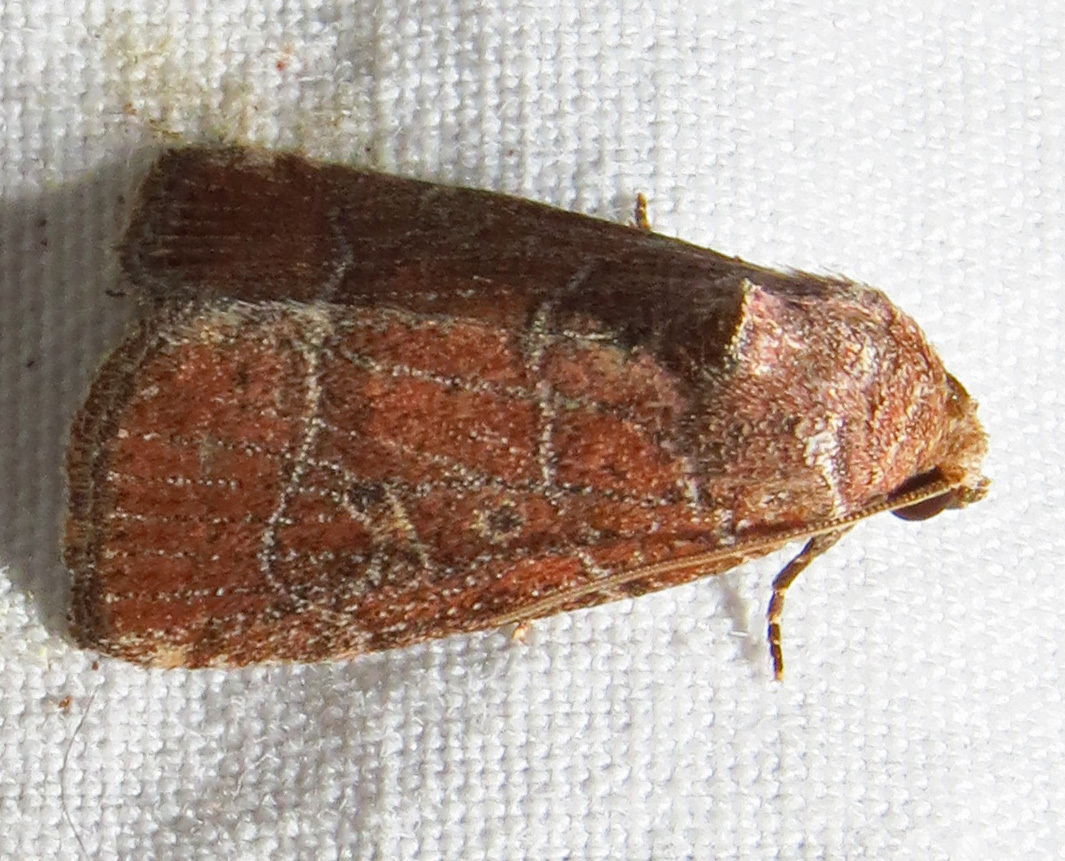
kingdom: Animalia
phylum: Arthropoda
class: Insecta
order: Lepidoptera
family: Noctuidae
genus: Elaphria
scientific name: Elaphria grata
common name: Grateful midget moth
